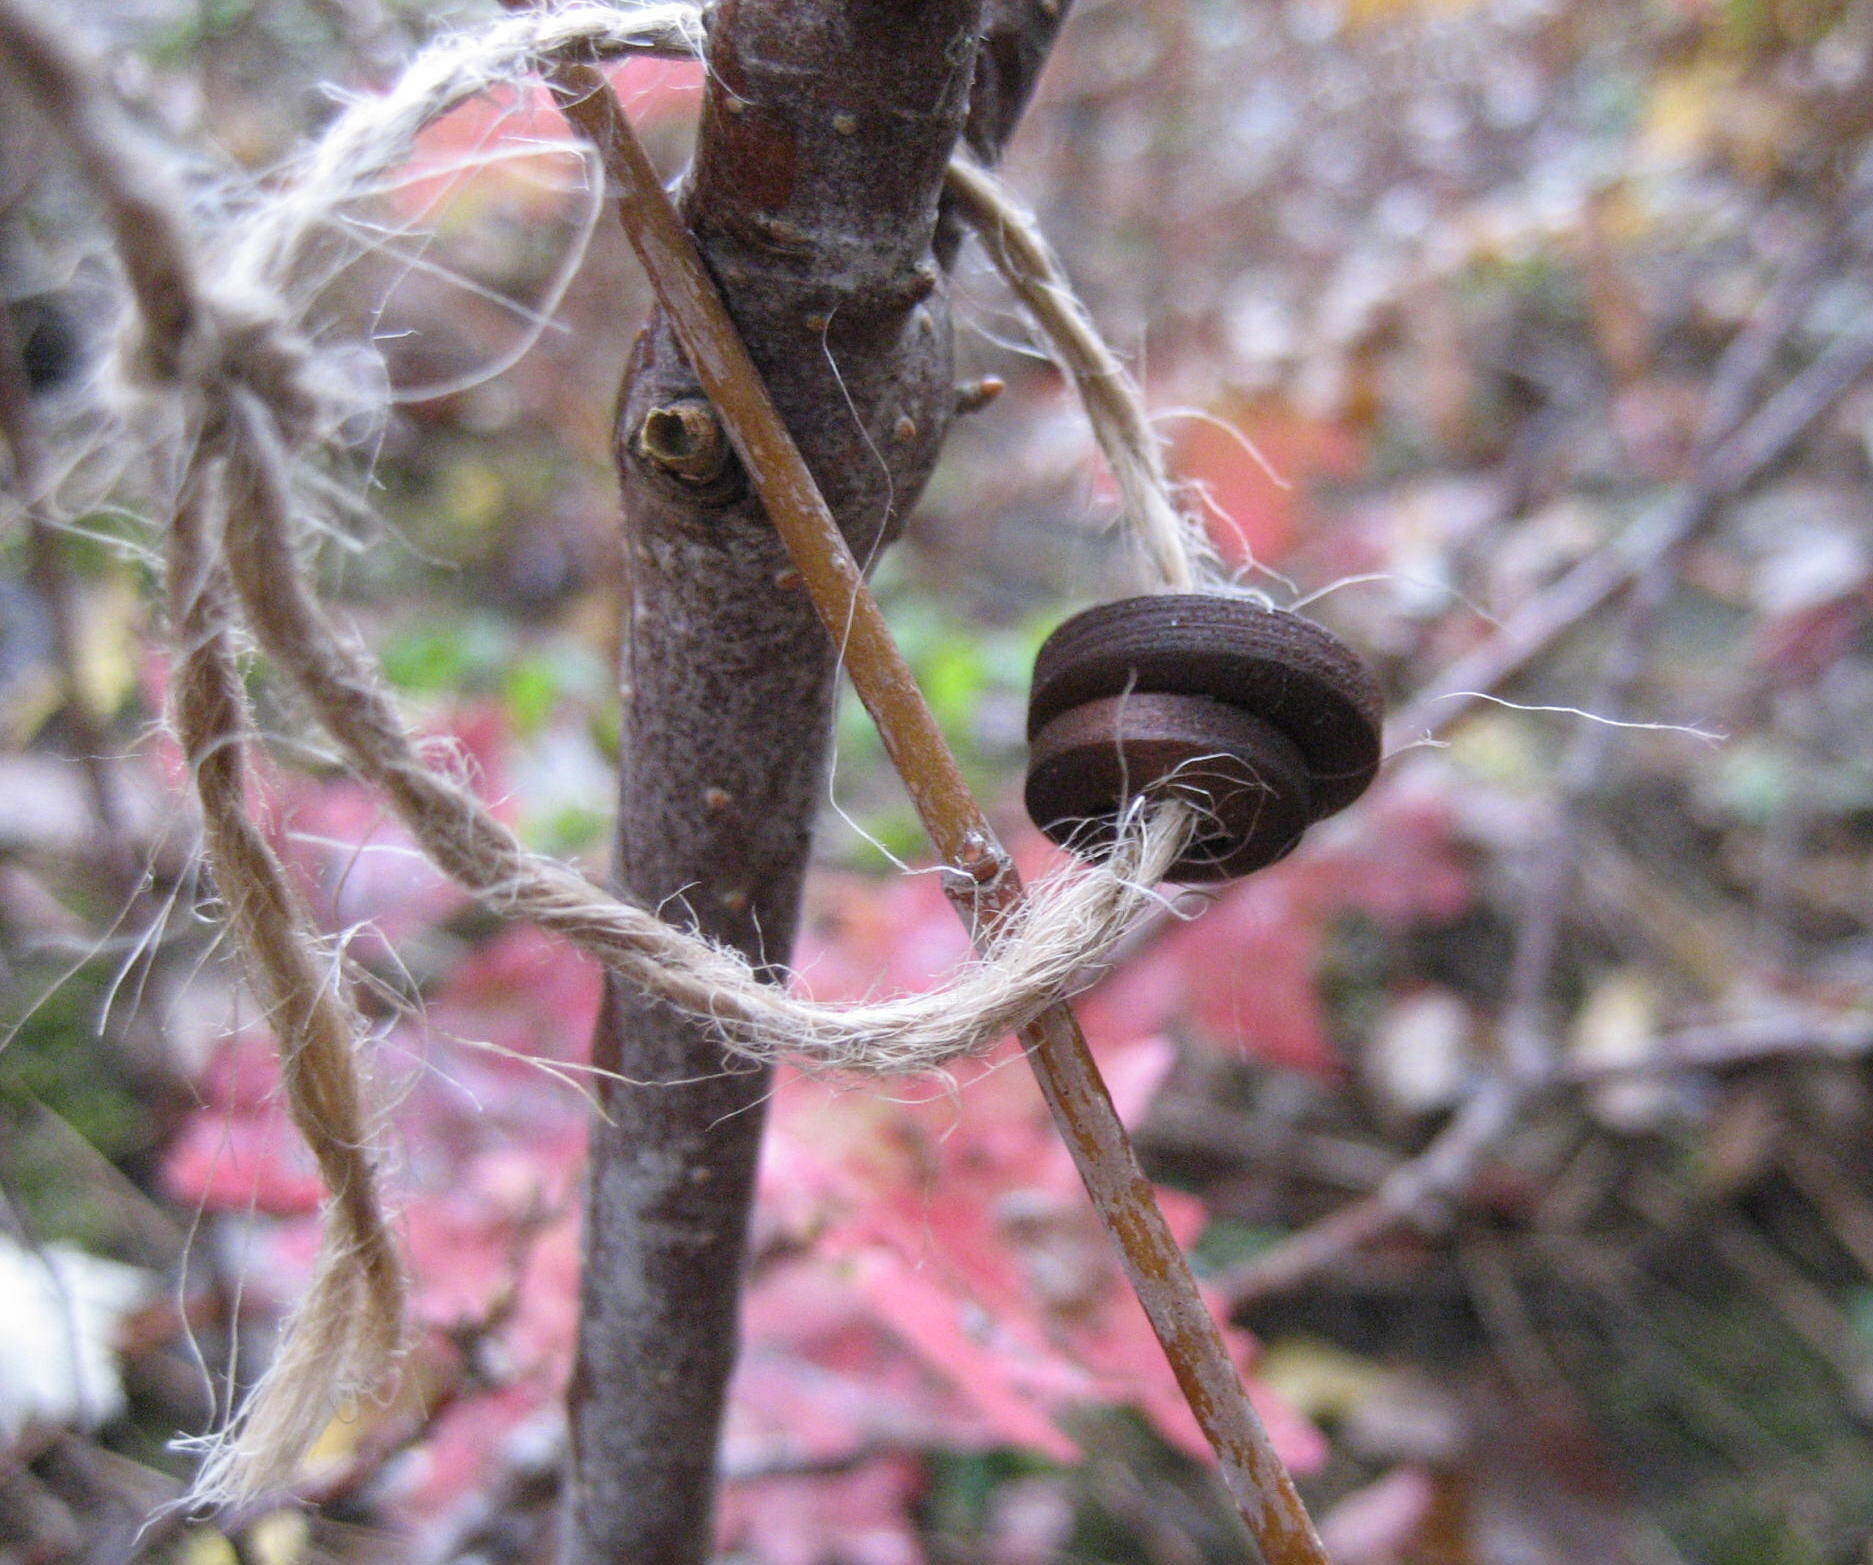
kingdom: Plantae
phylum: Tracheophyta
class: Magnoliopsida
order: Dipsacales
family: Viburnaceae
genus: Viburnum
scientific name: Viburnum acerifolium
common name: Dockmackie
